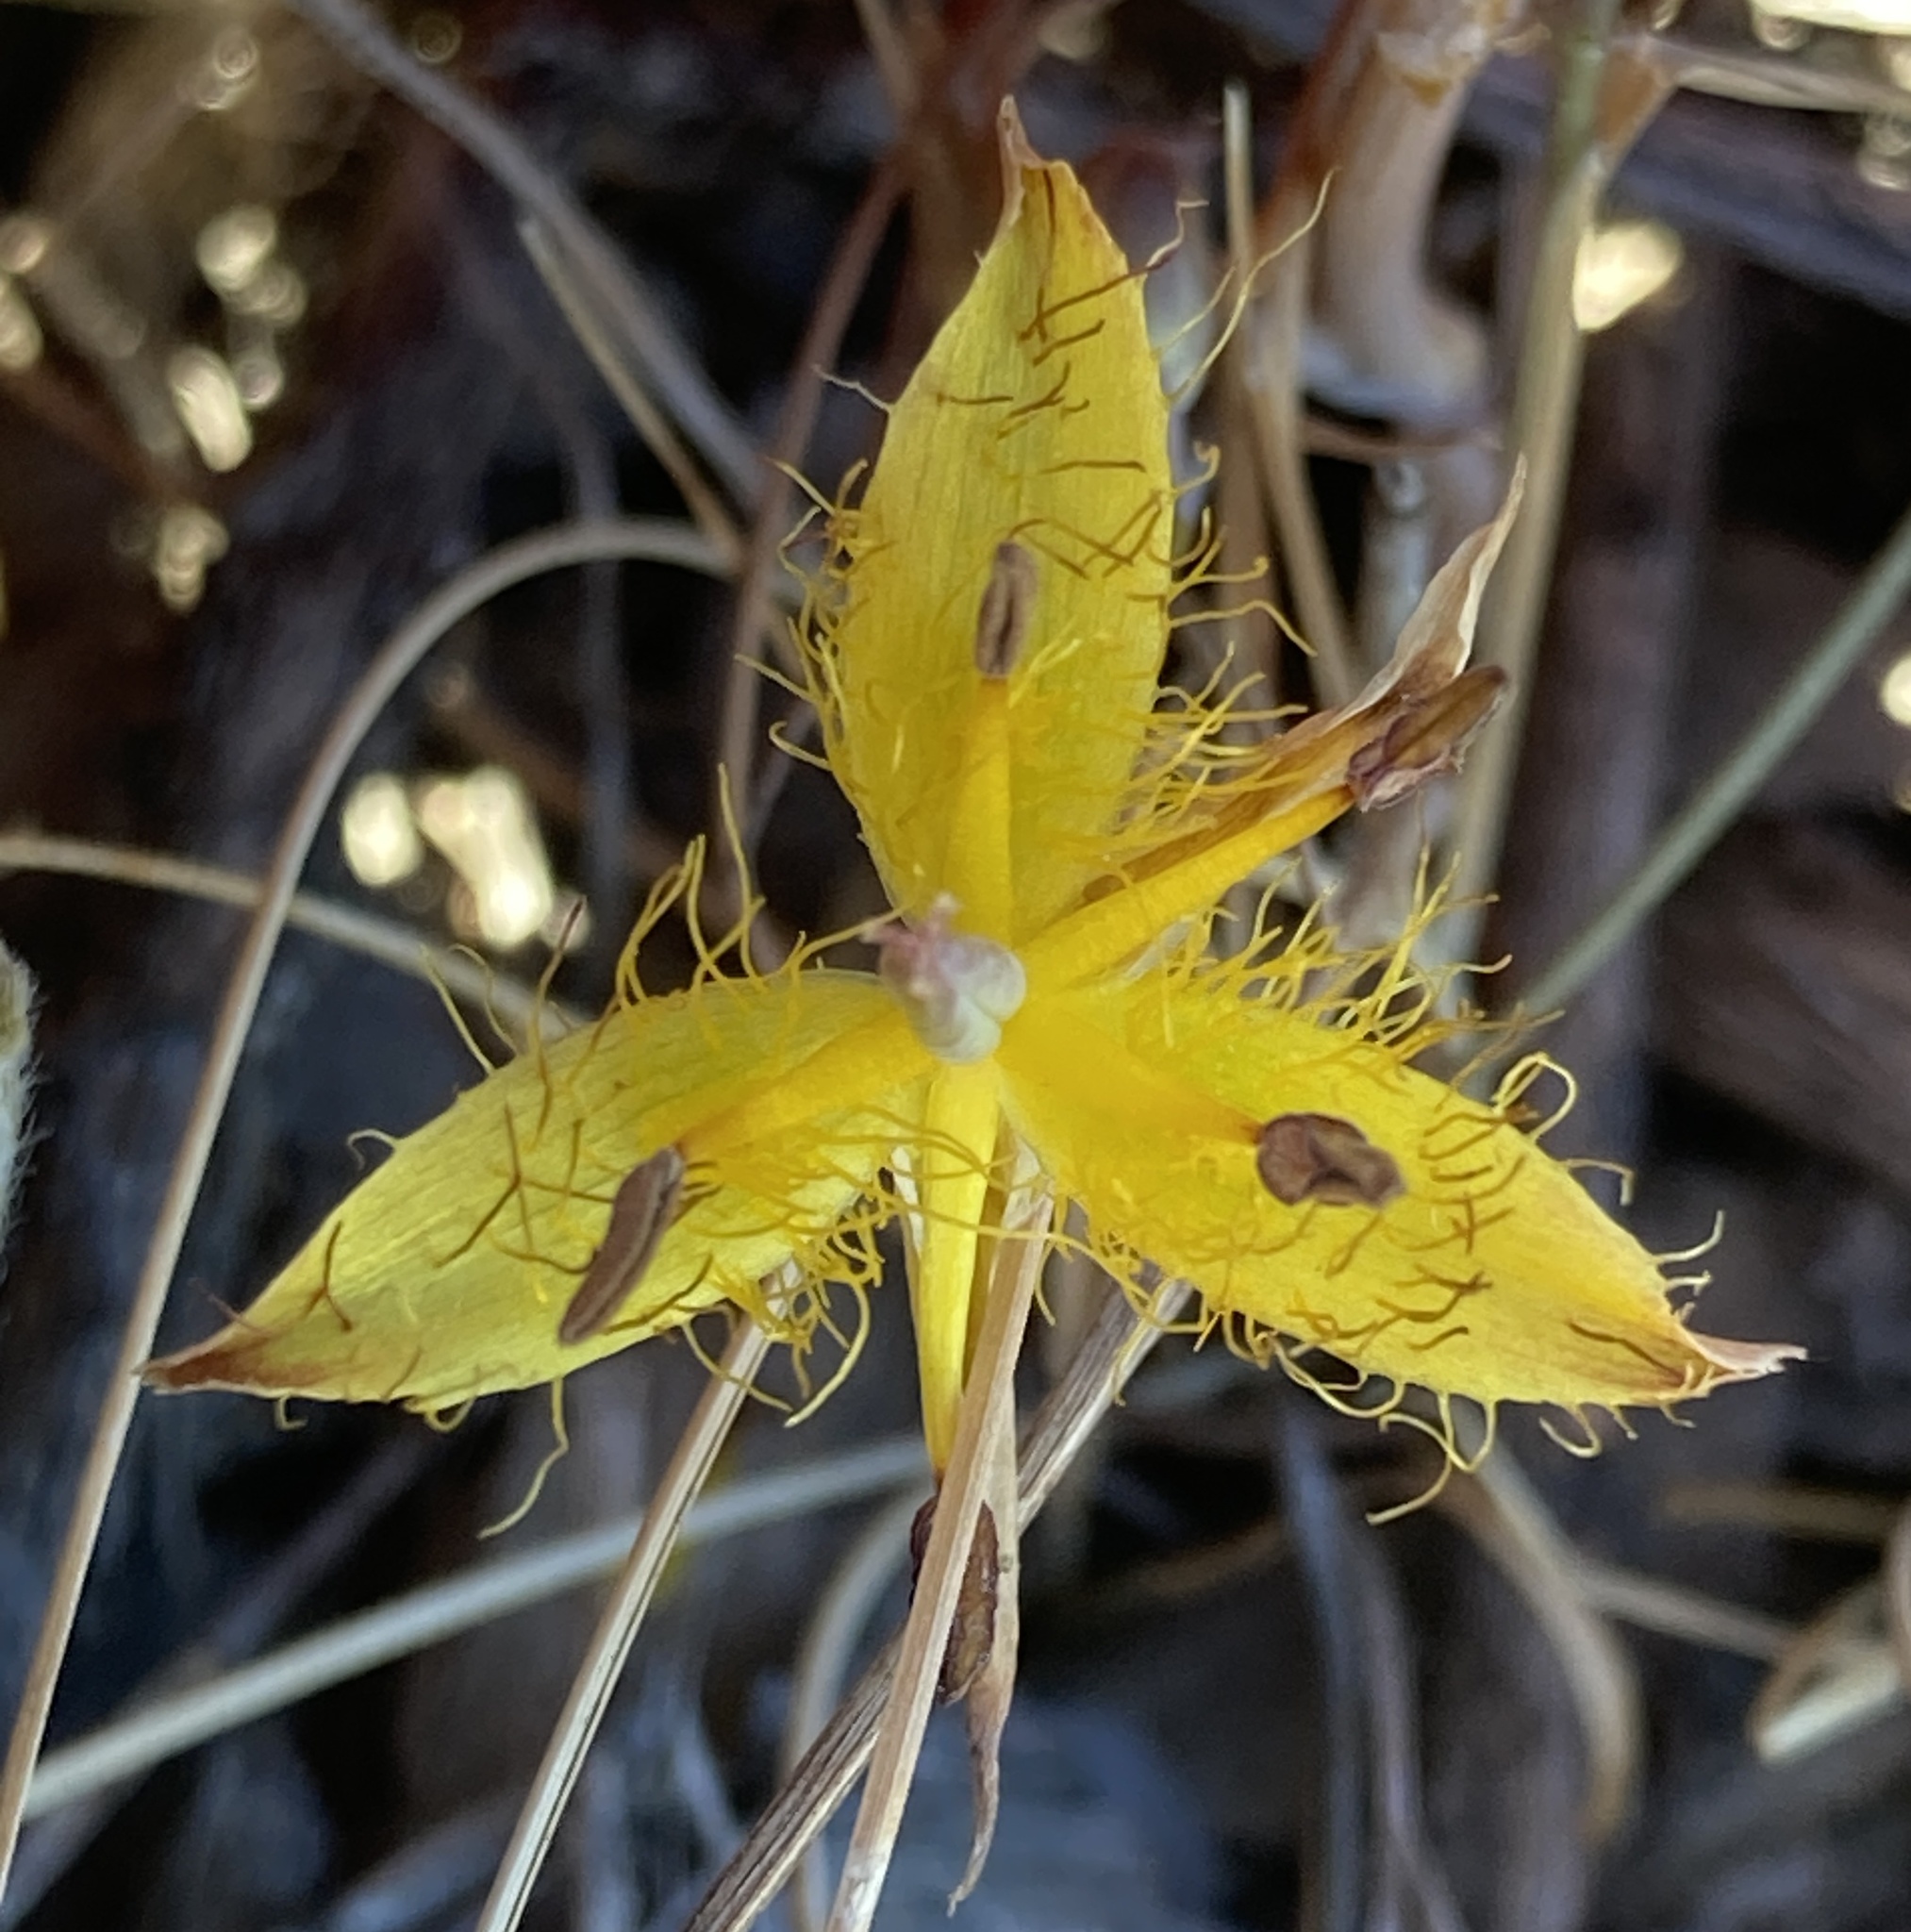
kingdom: Plantae
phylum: Tracheophyta
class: Liliopsida
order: Liliales
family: Liliaceae
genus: Calochortus
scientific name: Calochortus obispoensis
